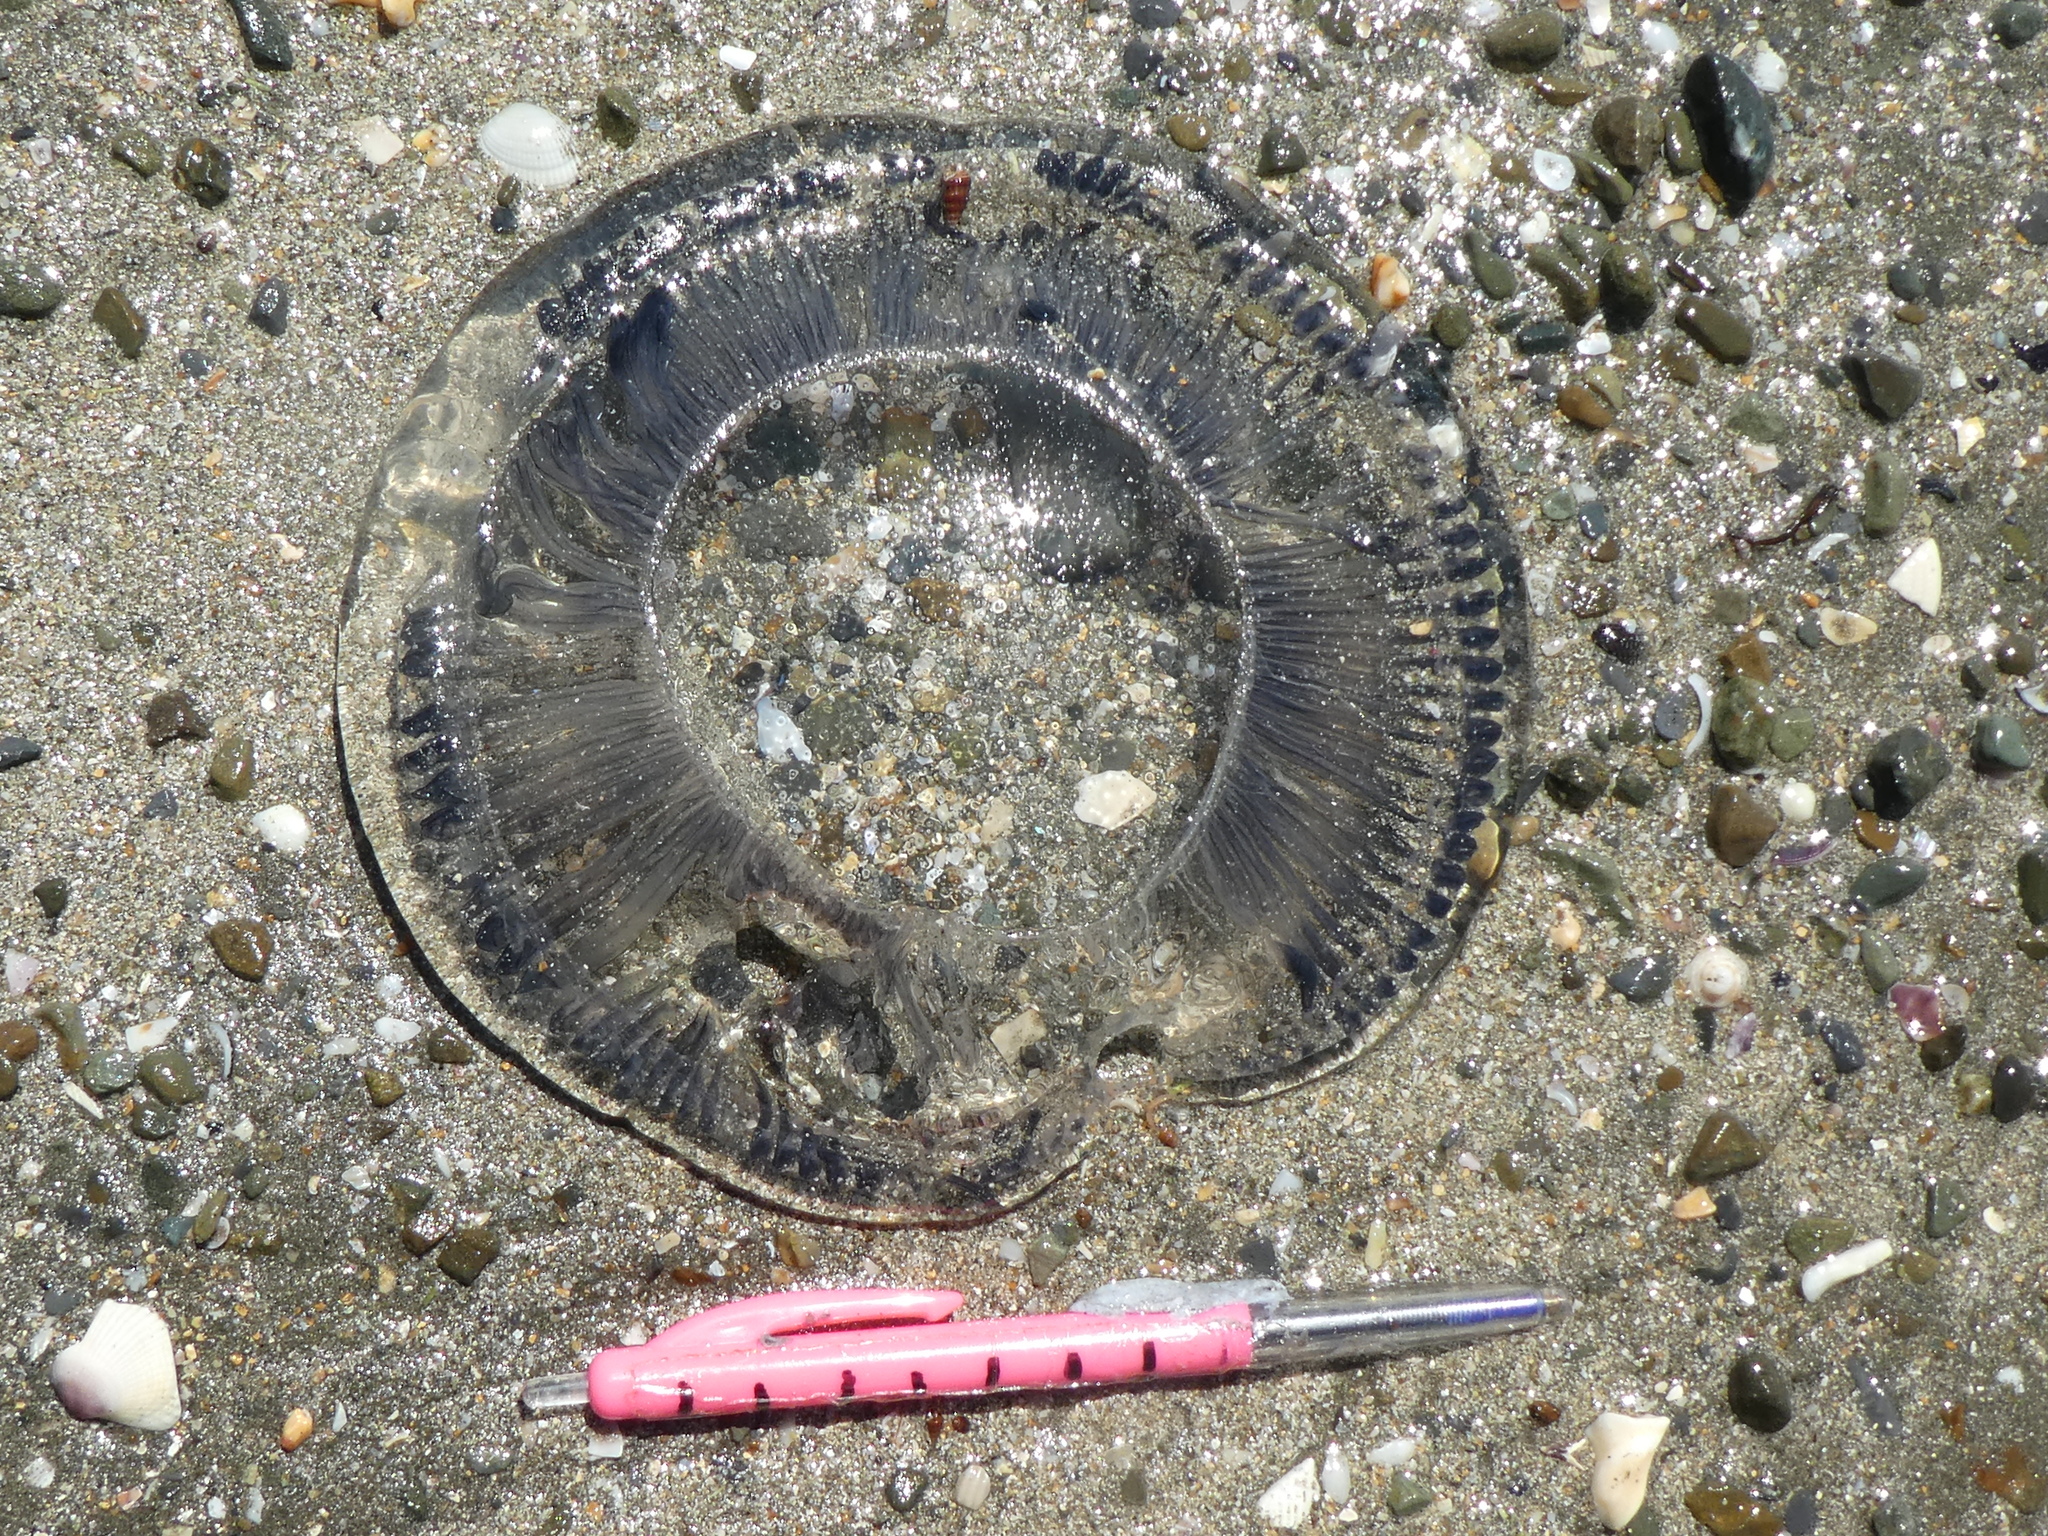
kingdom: Animalia
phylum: Cnidaria
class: Hydrozoa
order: Leptothecata
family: Aequoreidae
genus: Aequorea
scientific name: Aequorea forskalea
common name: Many-ribbed jellyfish
